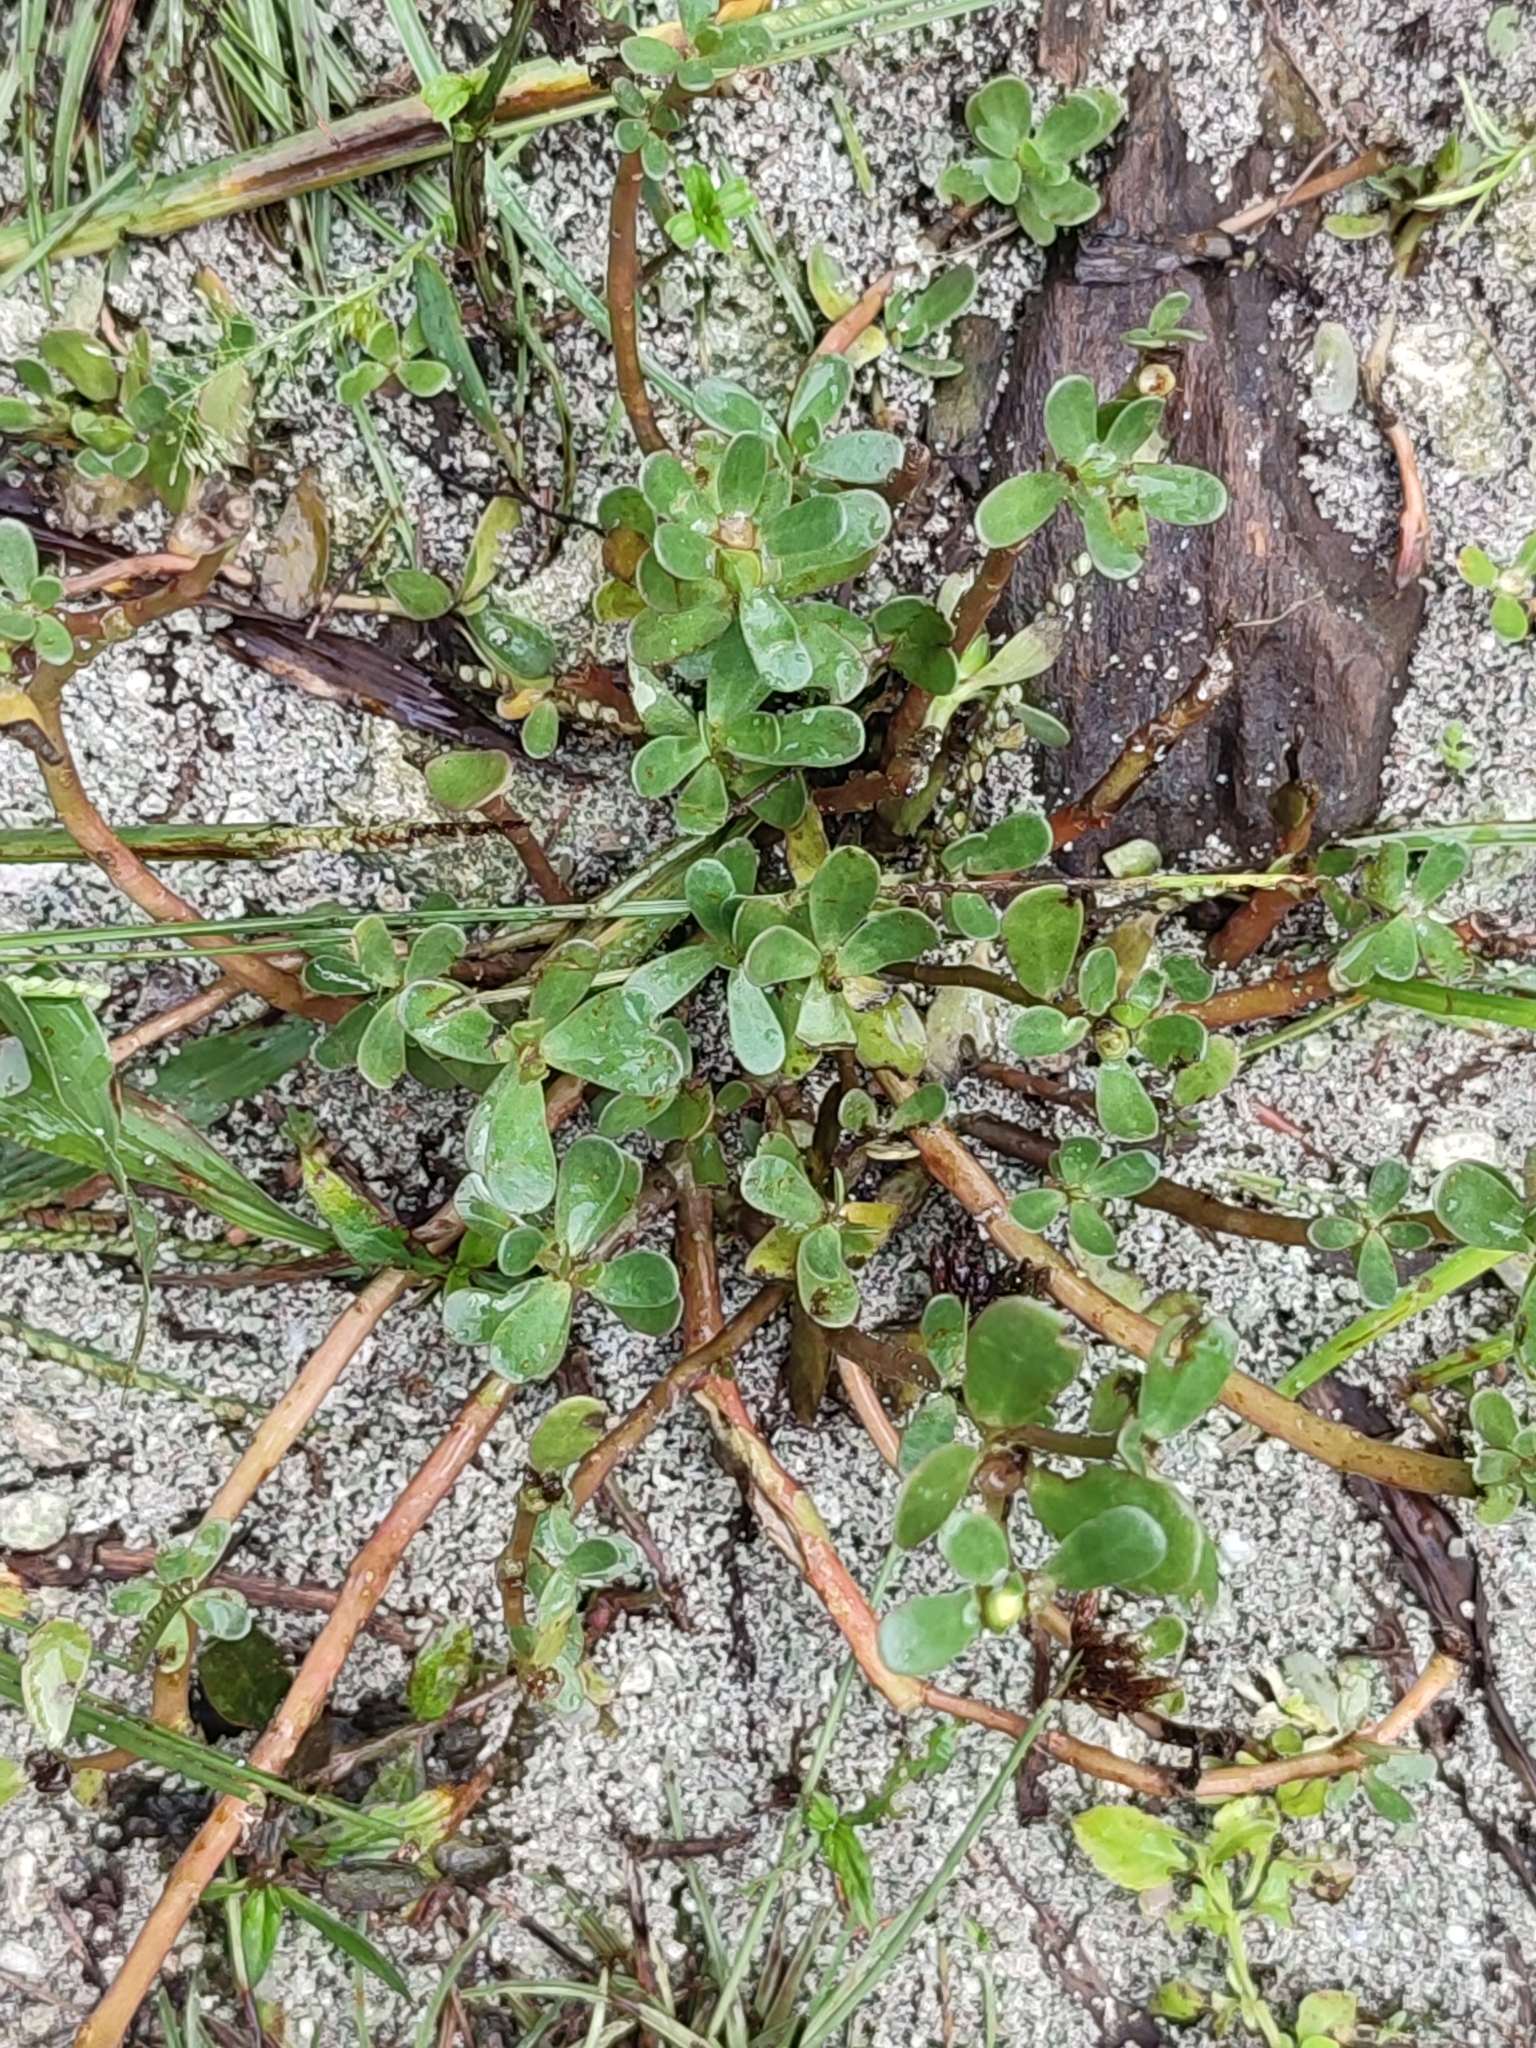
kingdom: Plantae
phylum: Tracheophyta
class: Magnoliopsida
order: Caryophyllales
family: Portulacaceae
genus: Portulaca
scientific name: Portulaca oleracea
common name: Common purslane
